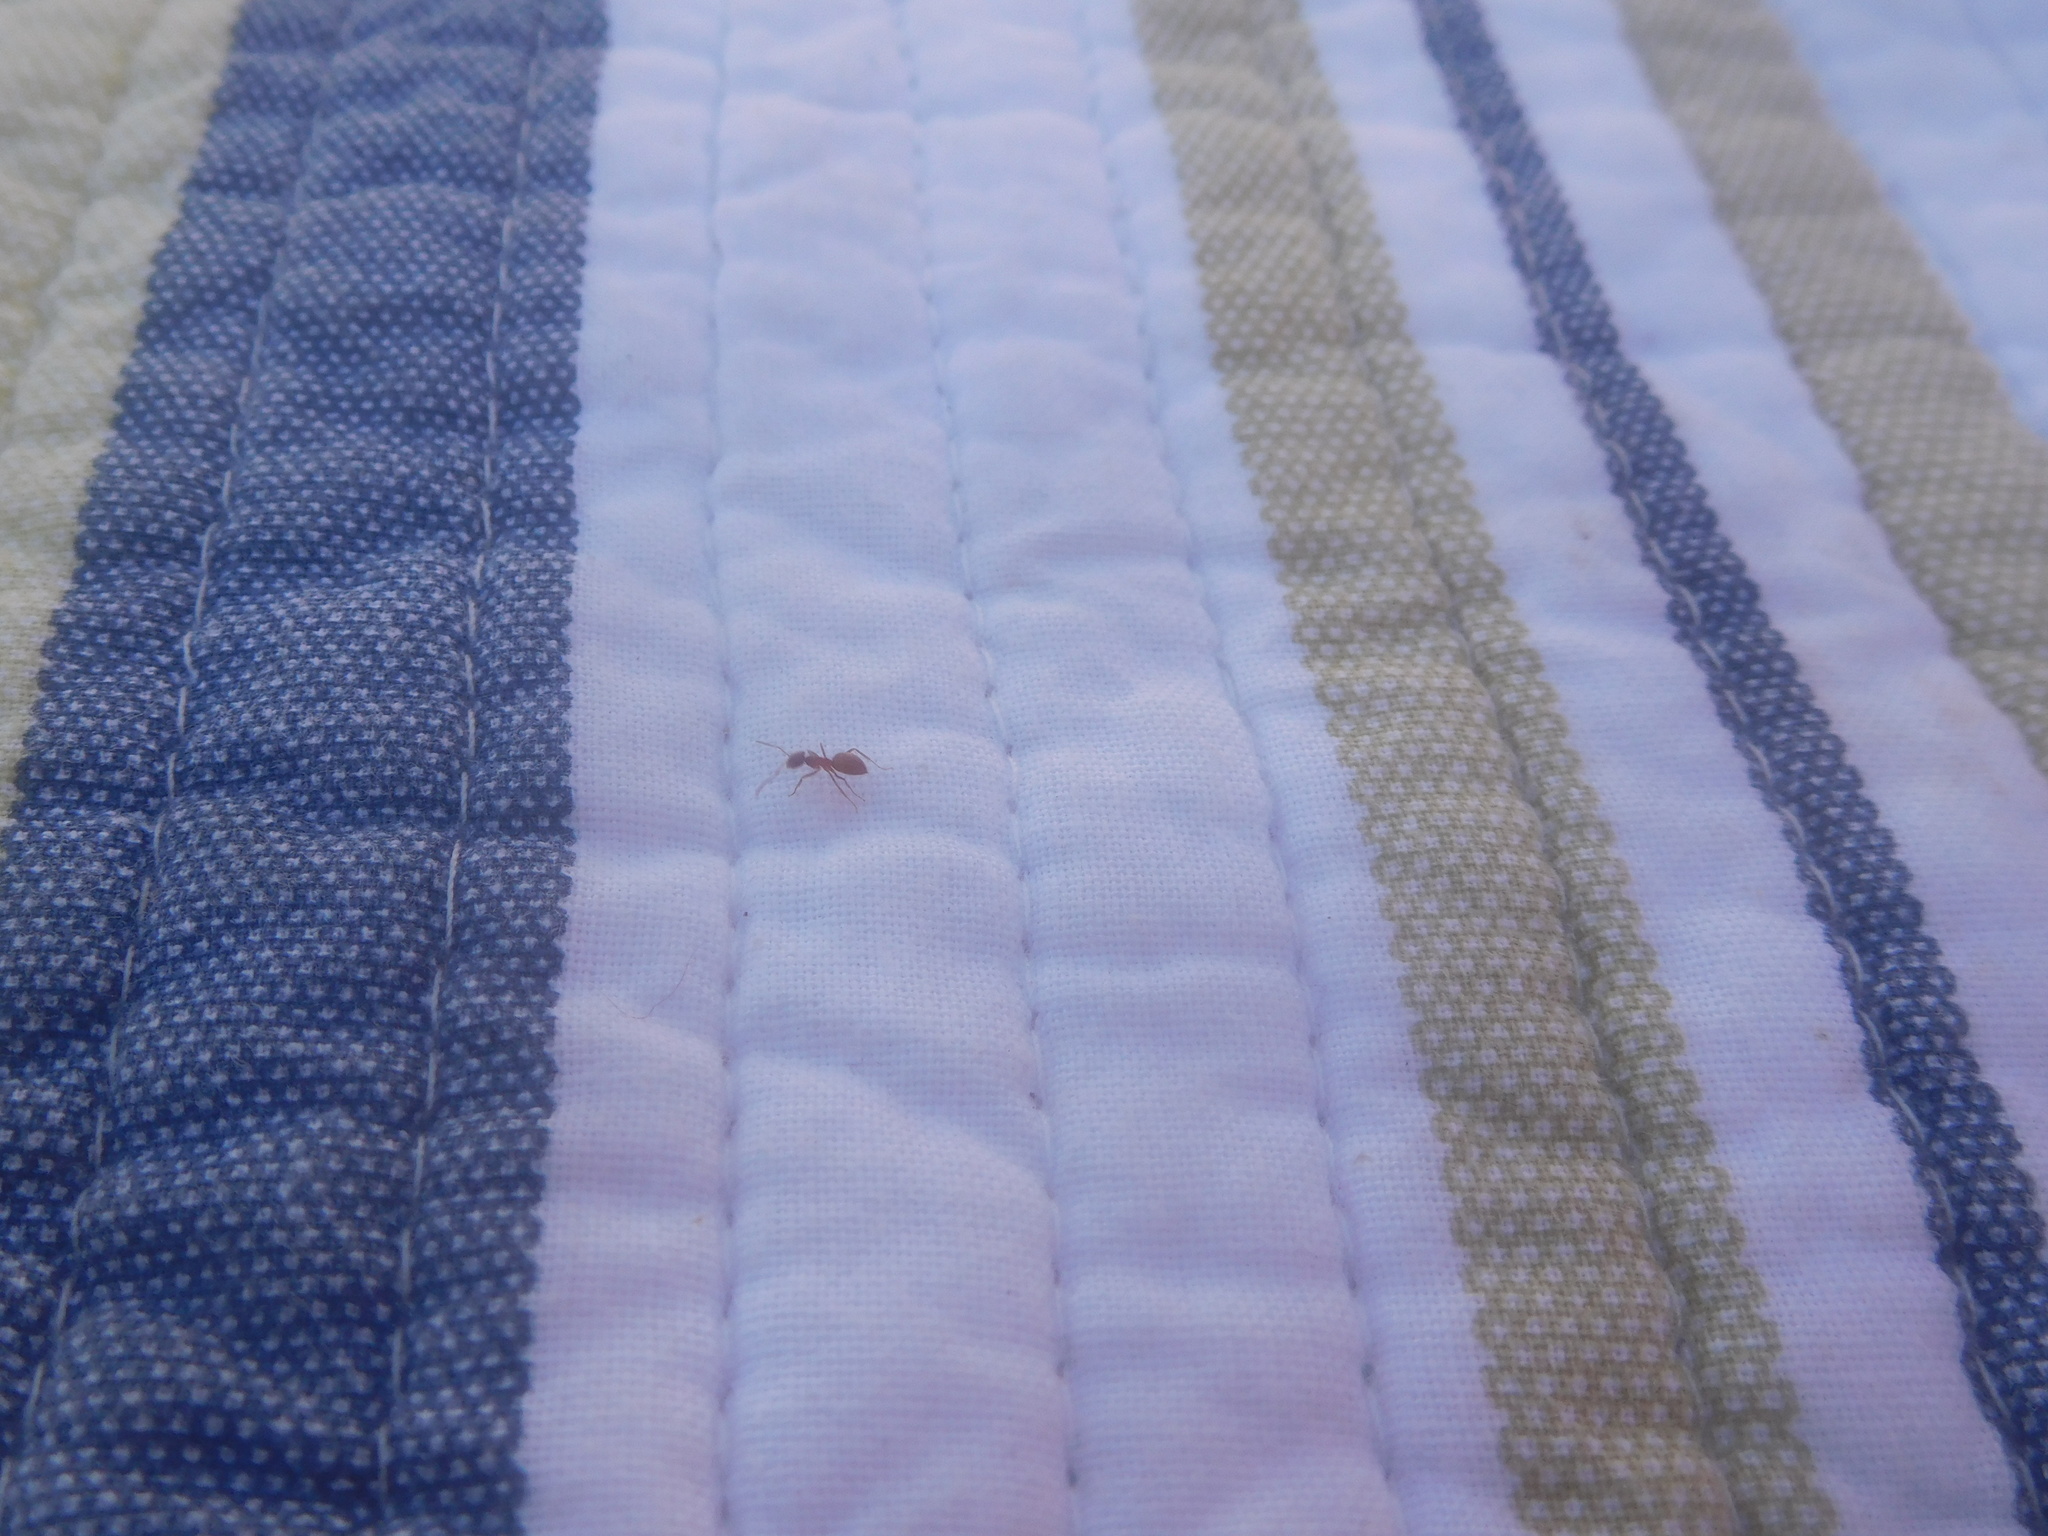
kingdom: Animalia
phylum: Arthropoda
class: Insecta
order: Hymenoptera
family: Formicidae
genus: Lasius
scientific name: Lasius
